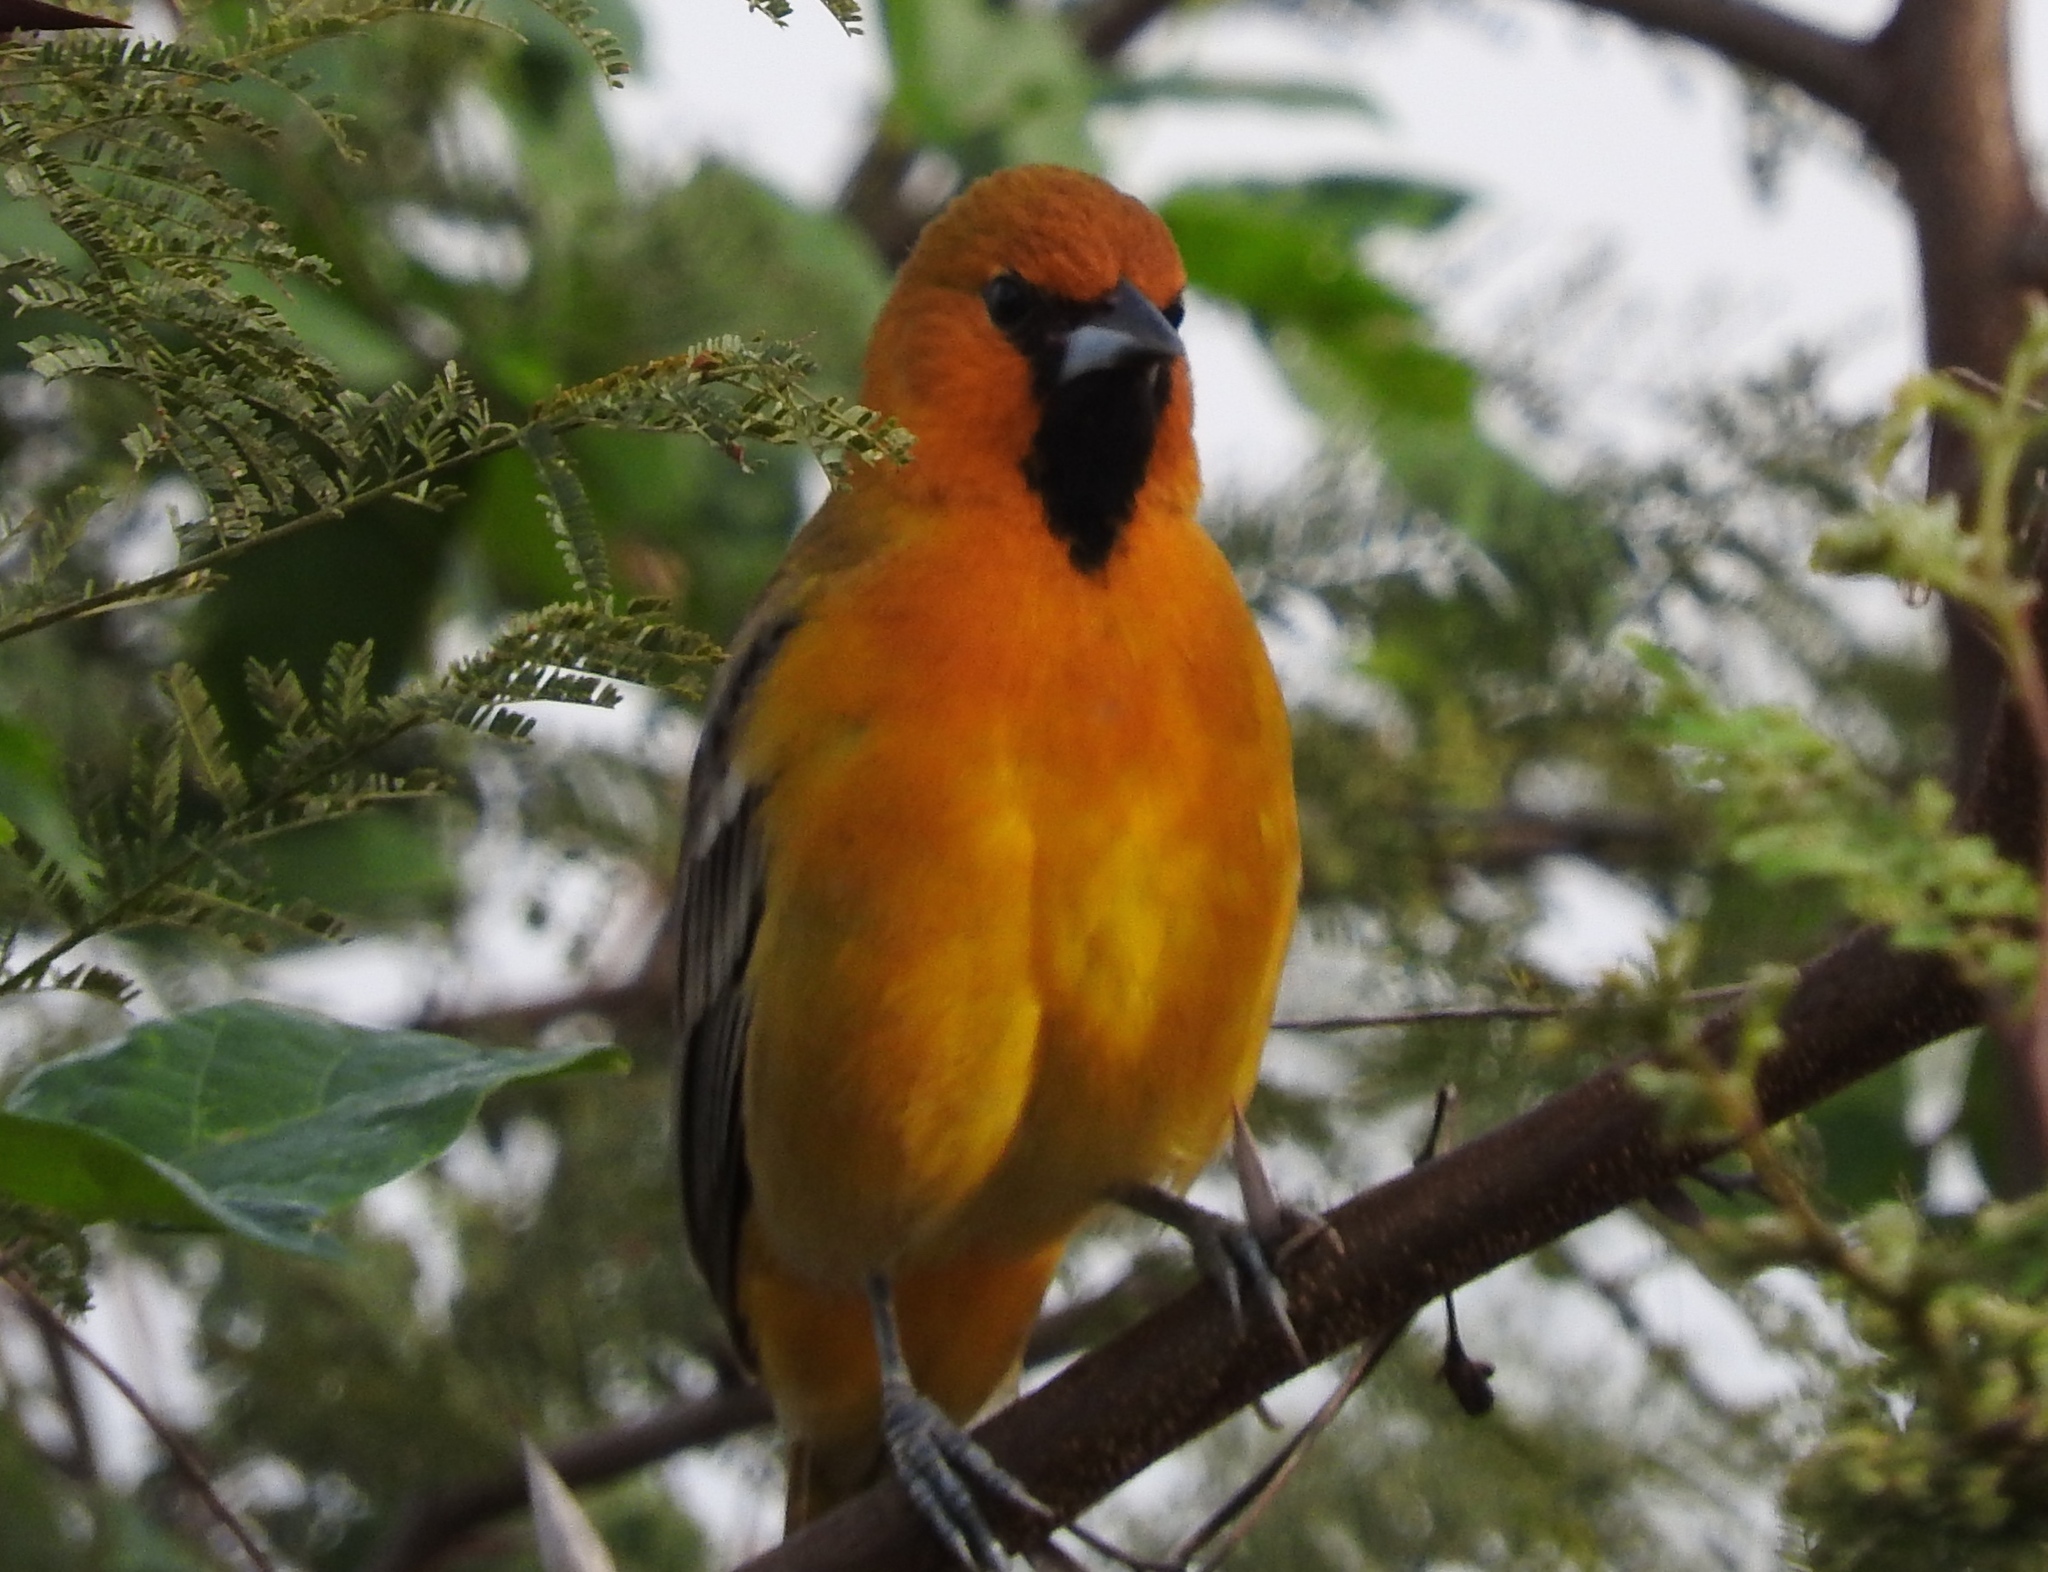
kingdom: Animalia
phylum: Chordata
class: Aves
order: Passeriformes
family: Icteridae
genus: Icterus
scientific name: Icterus pustulatus
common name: Streak-backed oriole
